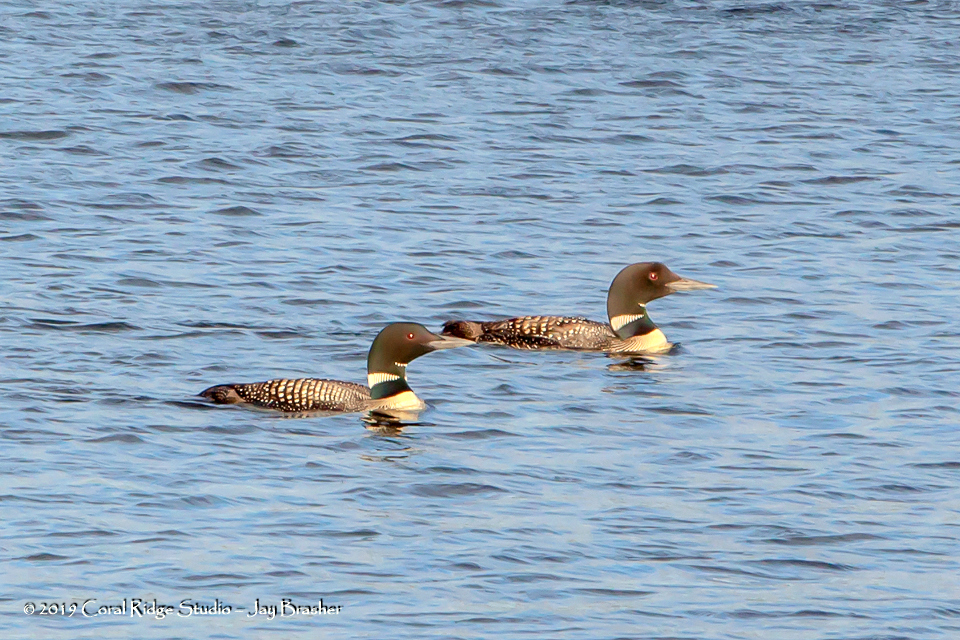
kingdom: Animalia
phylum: Chordata
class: Aves
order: Gaviiformes
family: Gaviidae
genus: Gavia
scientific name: Gavia immer
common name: Common loon
